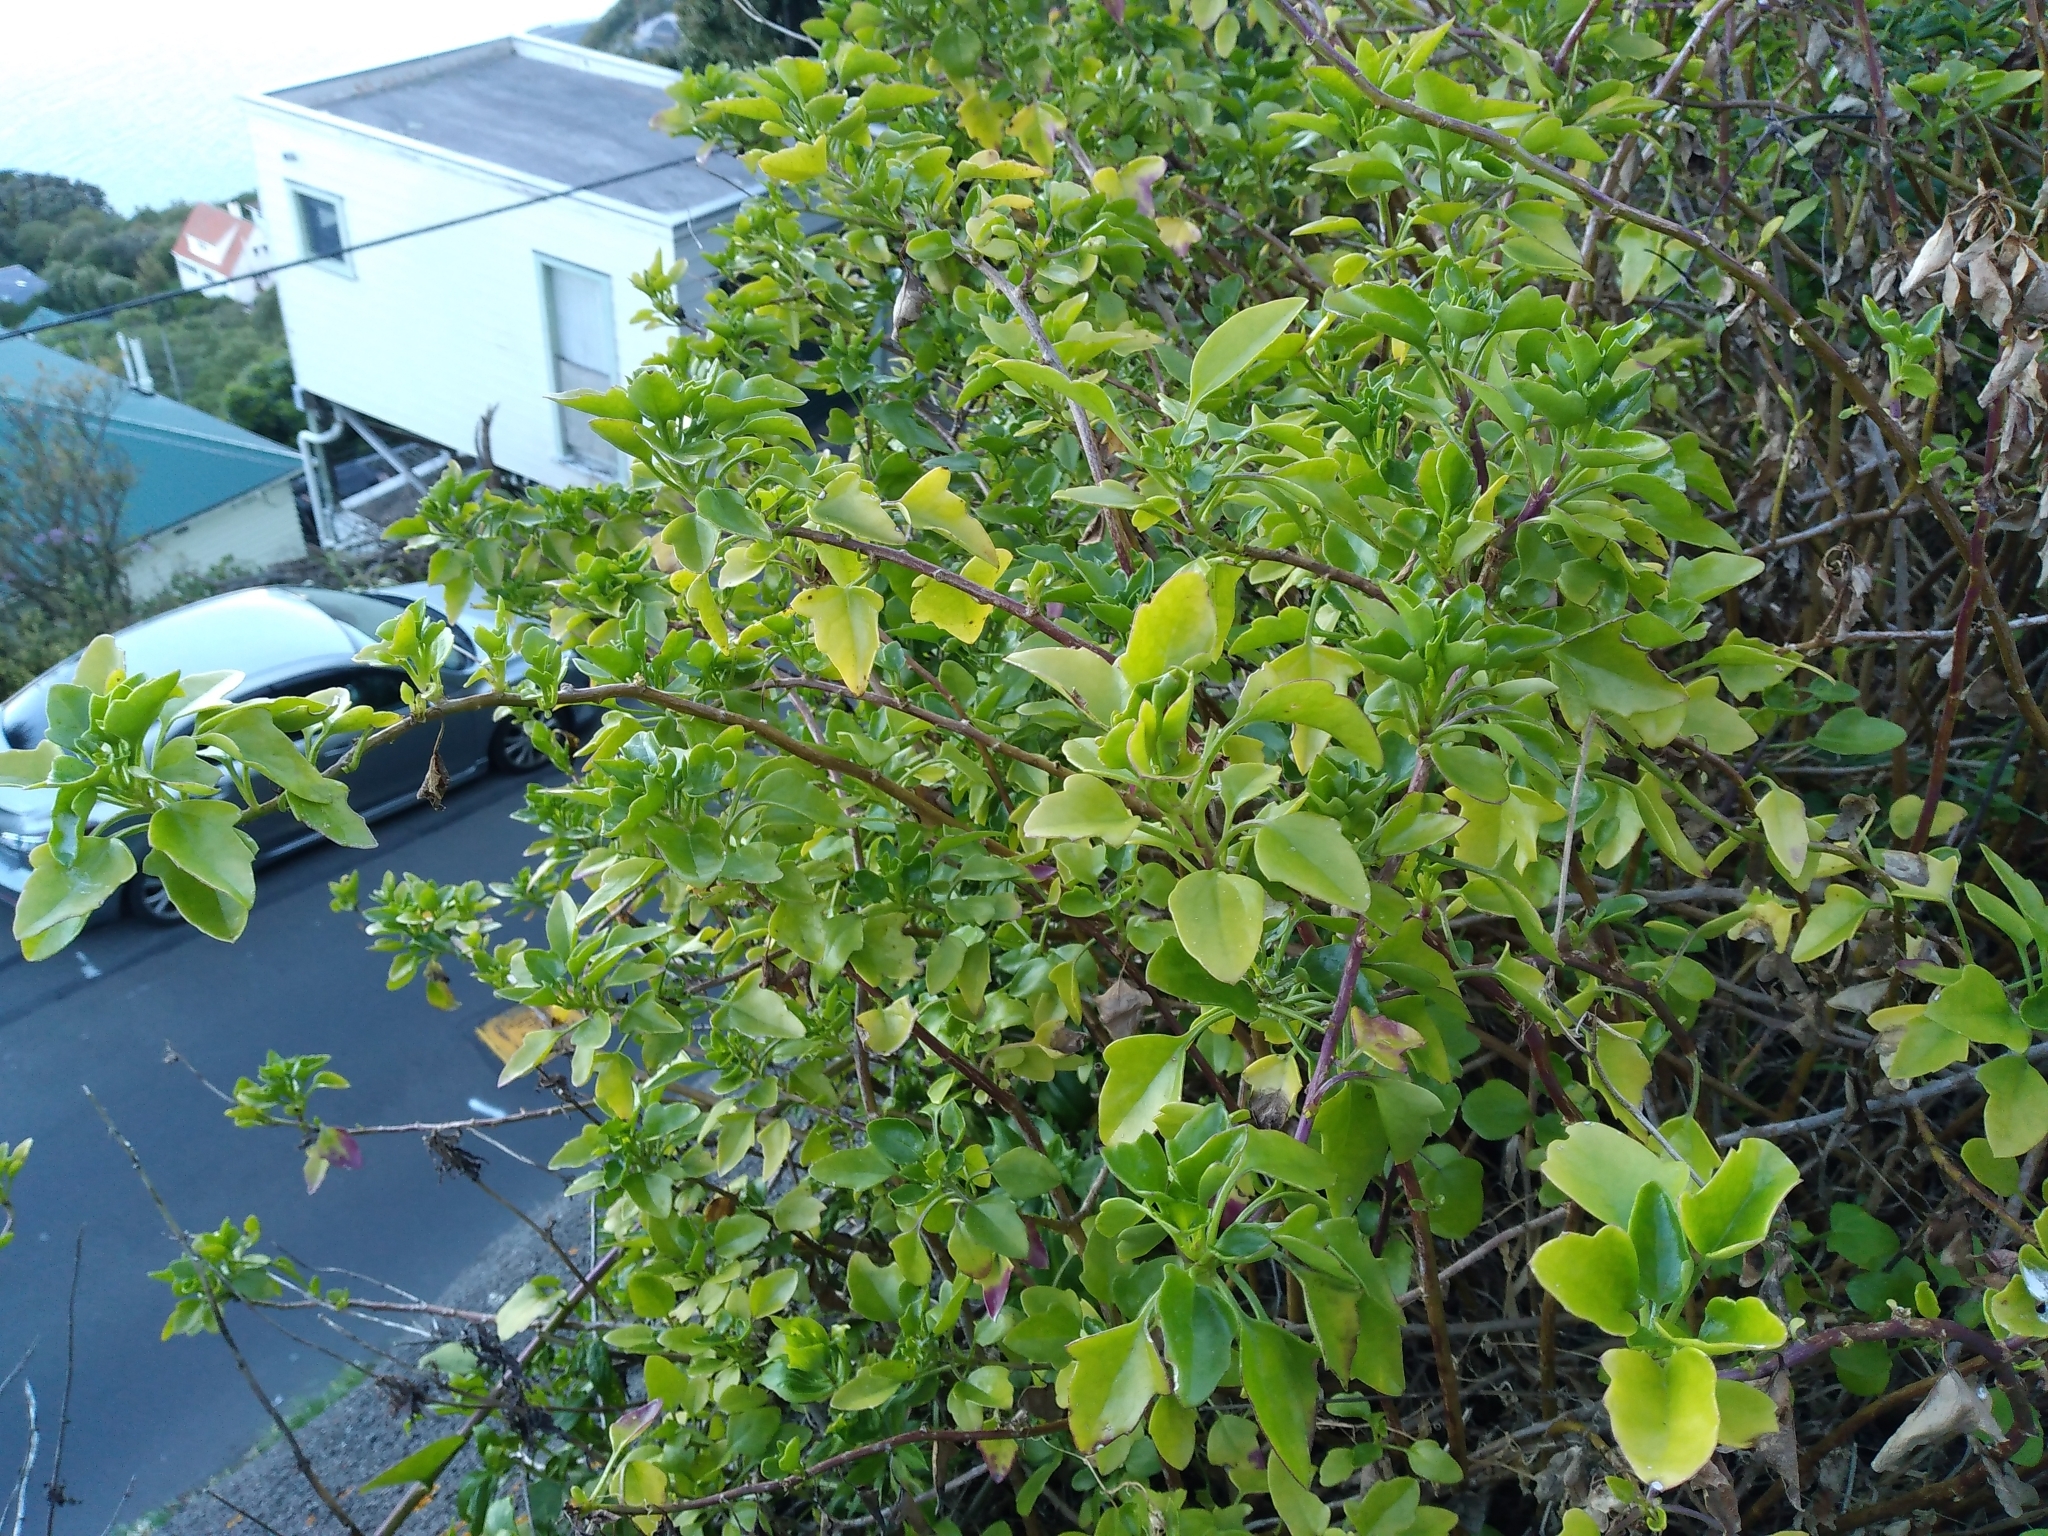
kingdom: Plantae
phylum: Tracheophyta
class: Magnoliopsida
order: Asterales
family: Asteraceae
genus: Senecio
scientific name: Senecio angulatus
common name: Climbing groundsel
